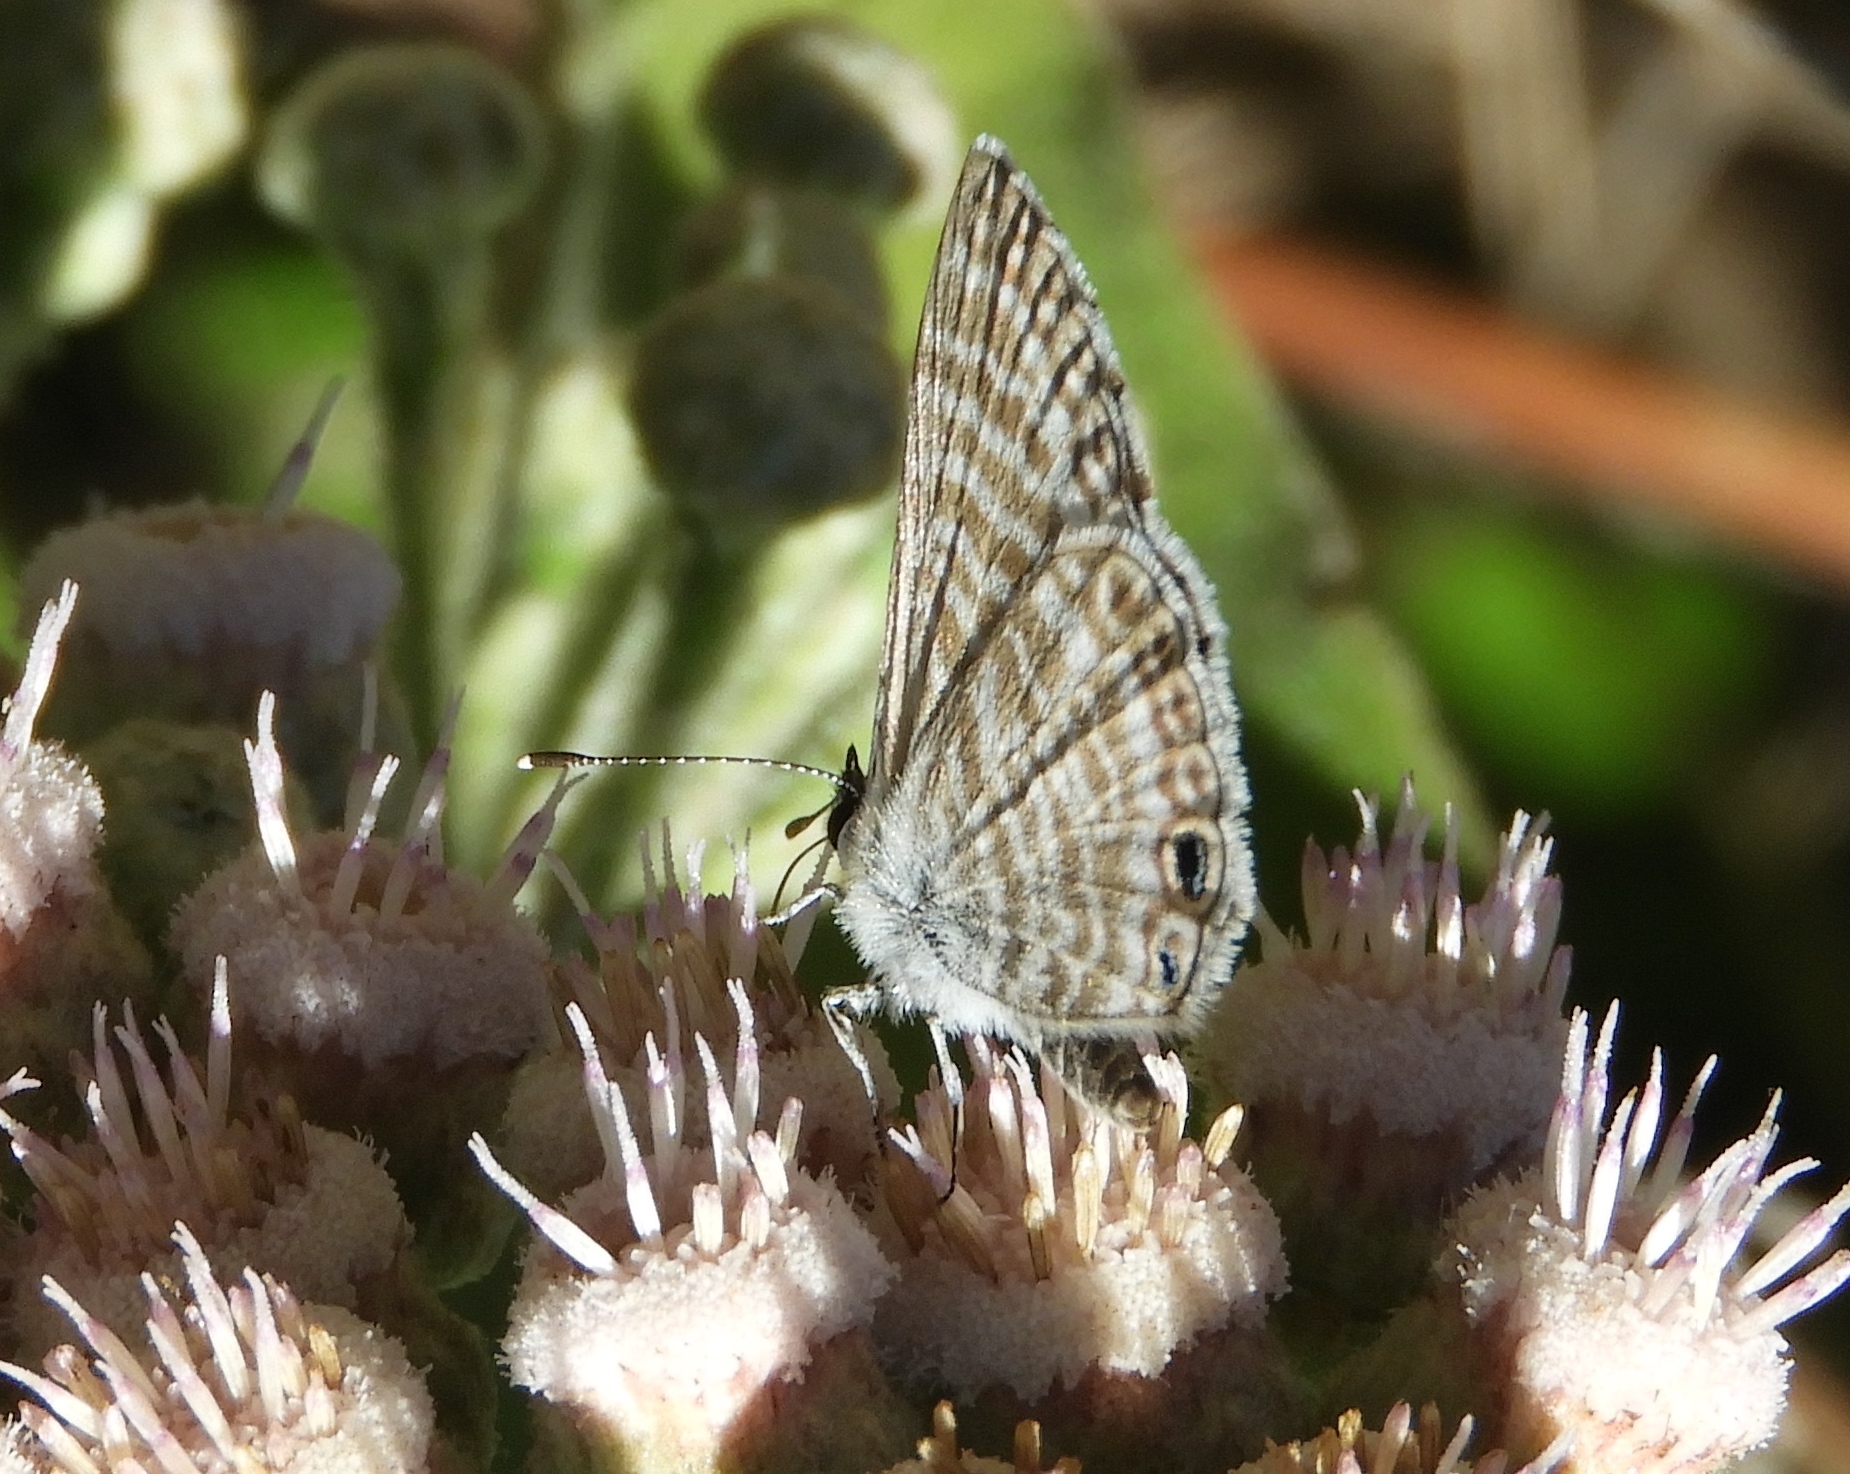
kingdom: Animalia
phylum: Arthropoda
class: Insecta
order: Lepidoptera
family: Lycaenidae
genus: Leptotes
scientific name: Leptotes marina
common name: Marine blue
